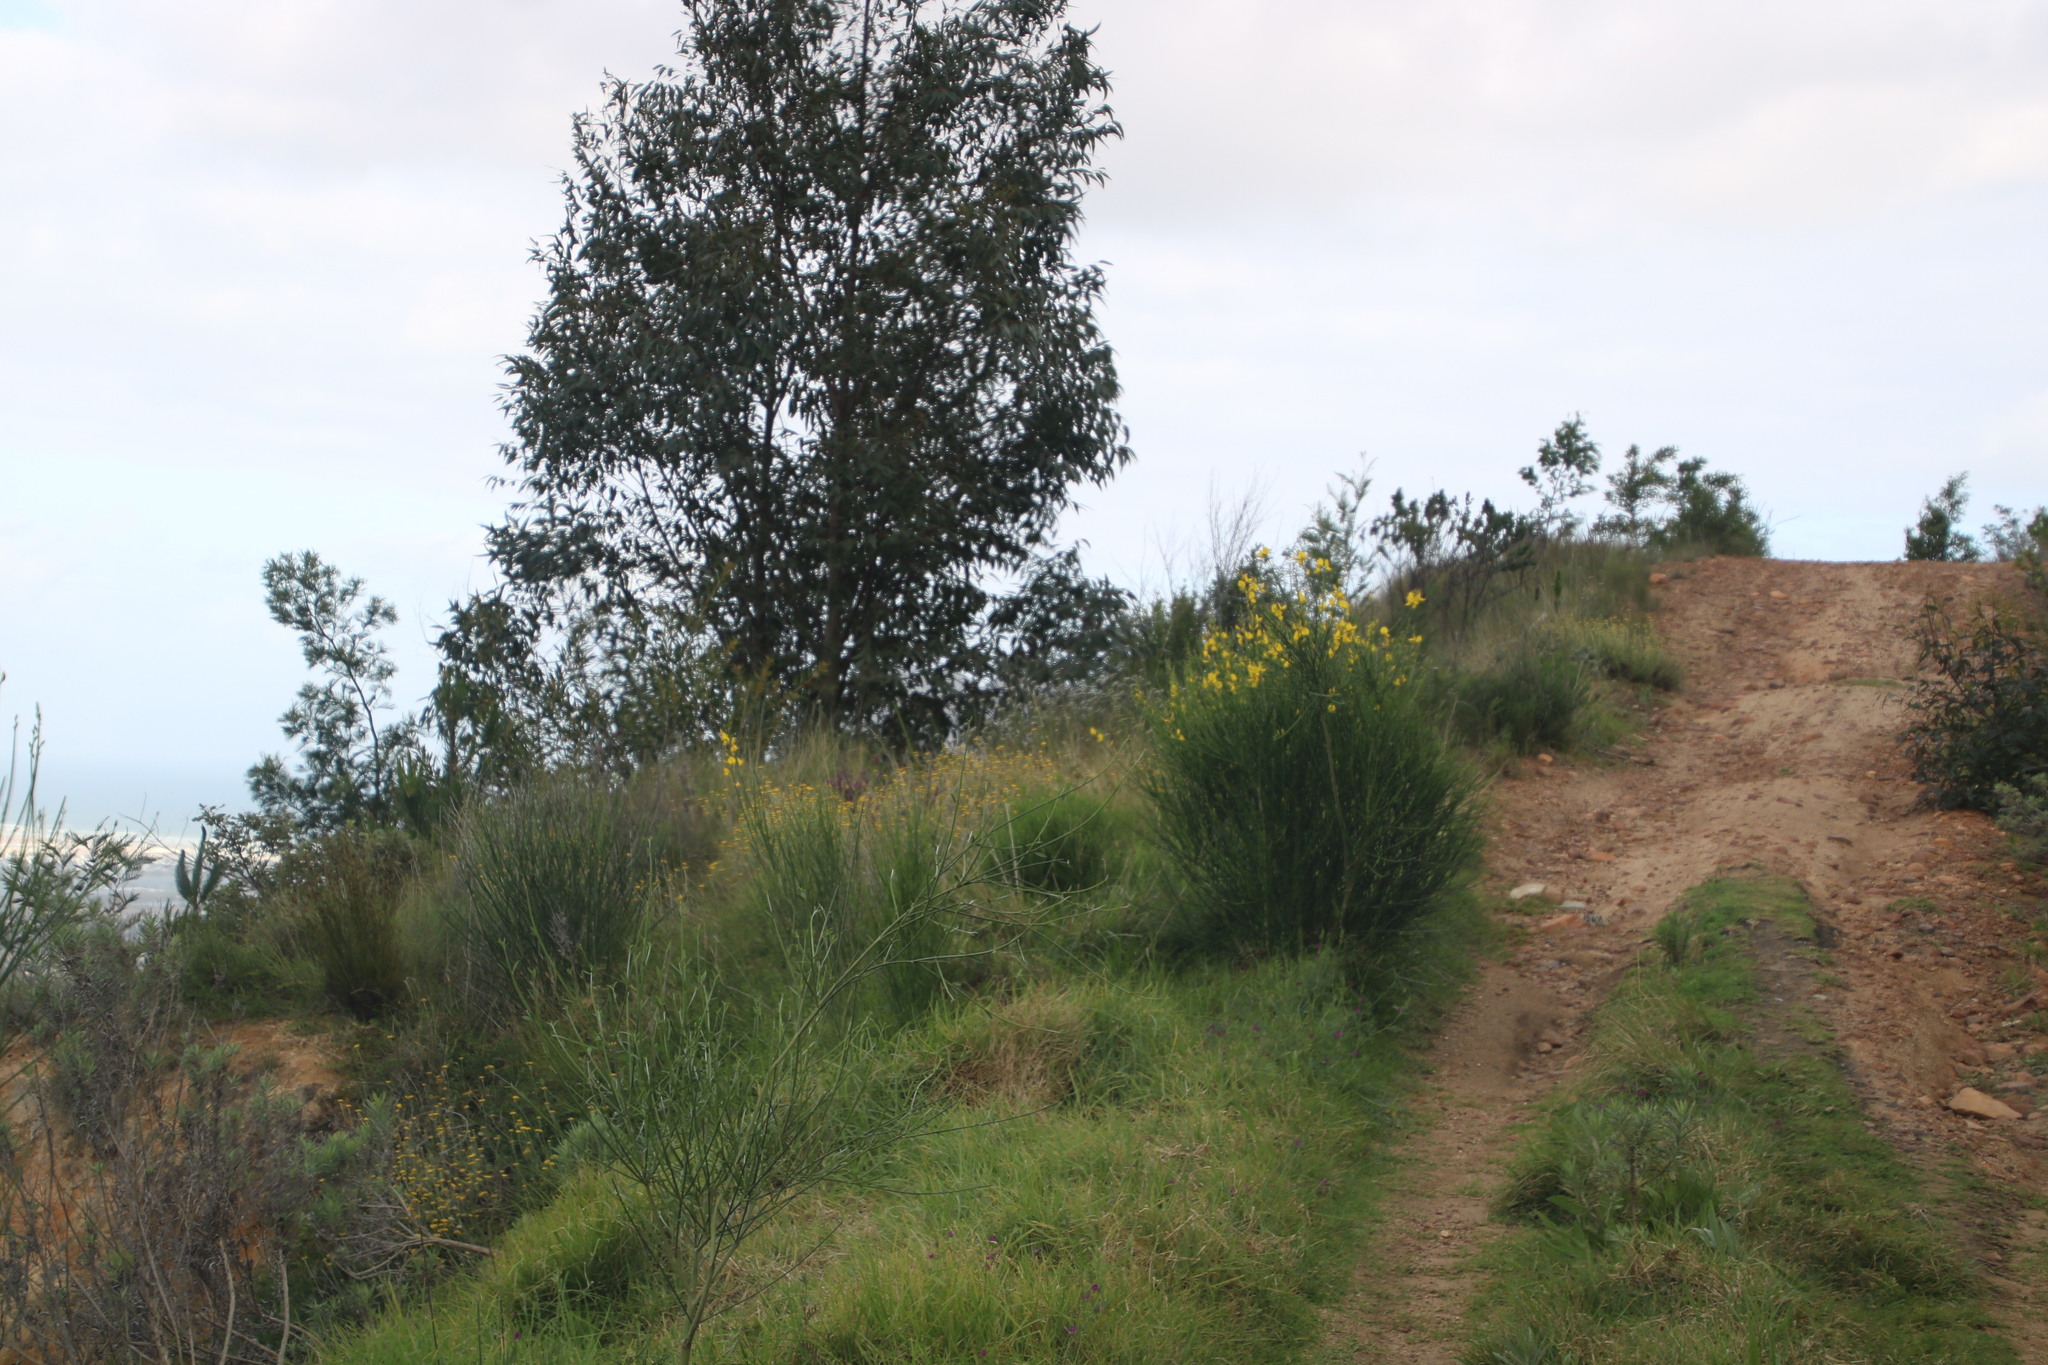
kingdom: Plantae
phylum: Tracheophyta
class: Magnoliopsida
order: Fabales
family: Fabaceae
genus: Spartium
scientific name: Spartium junceum
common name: Spanish broom
